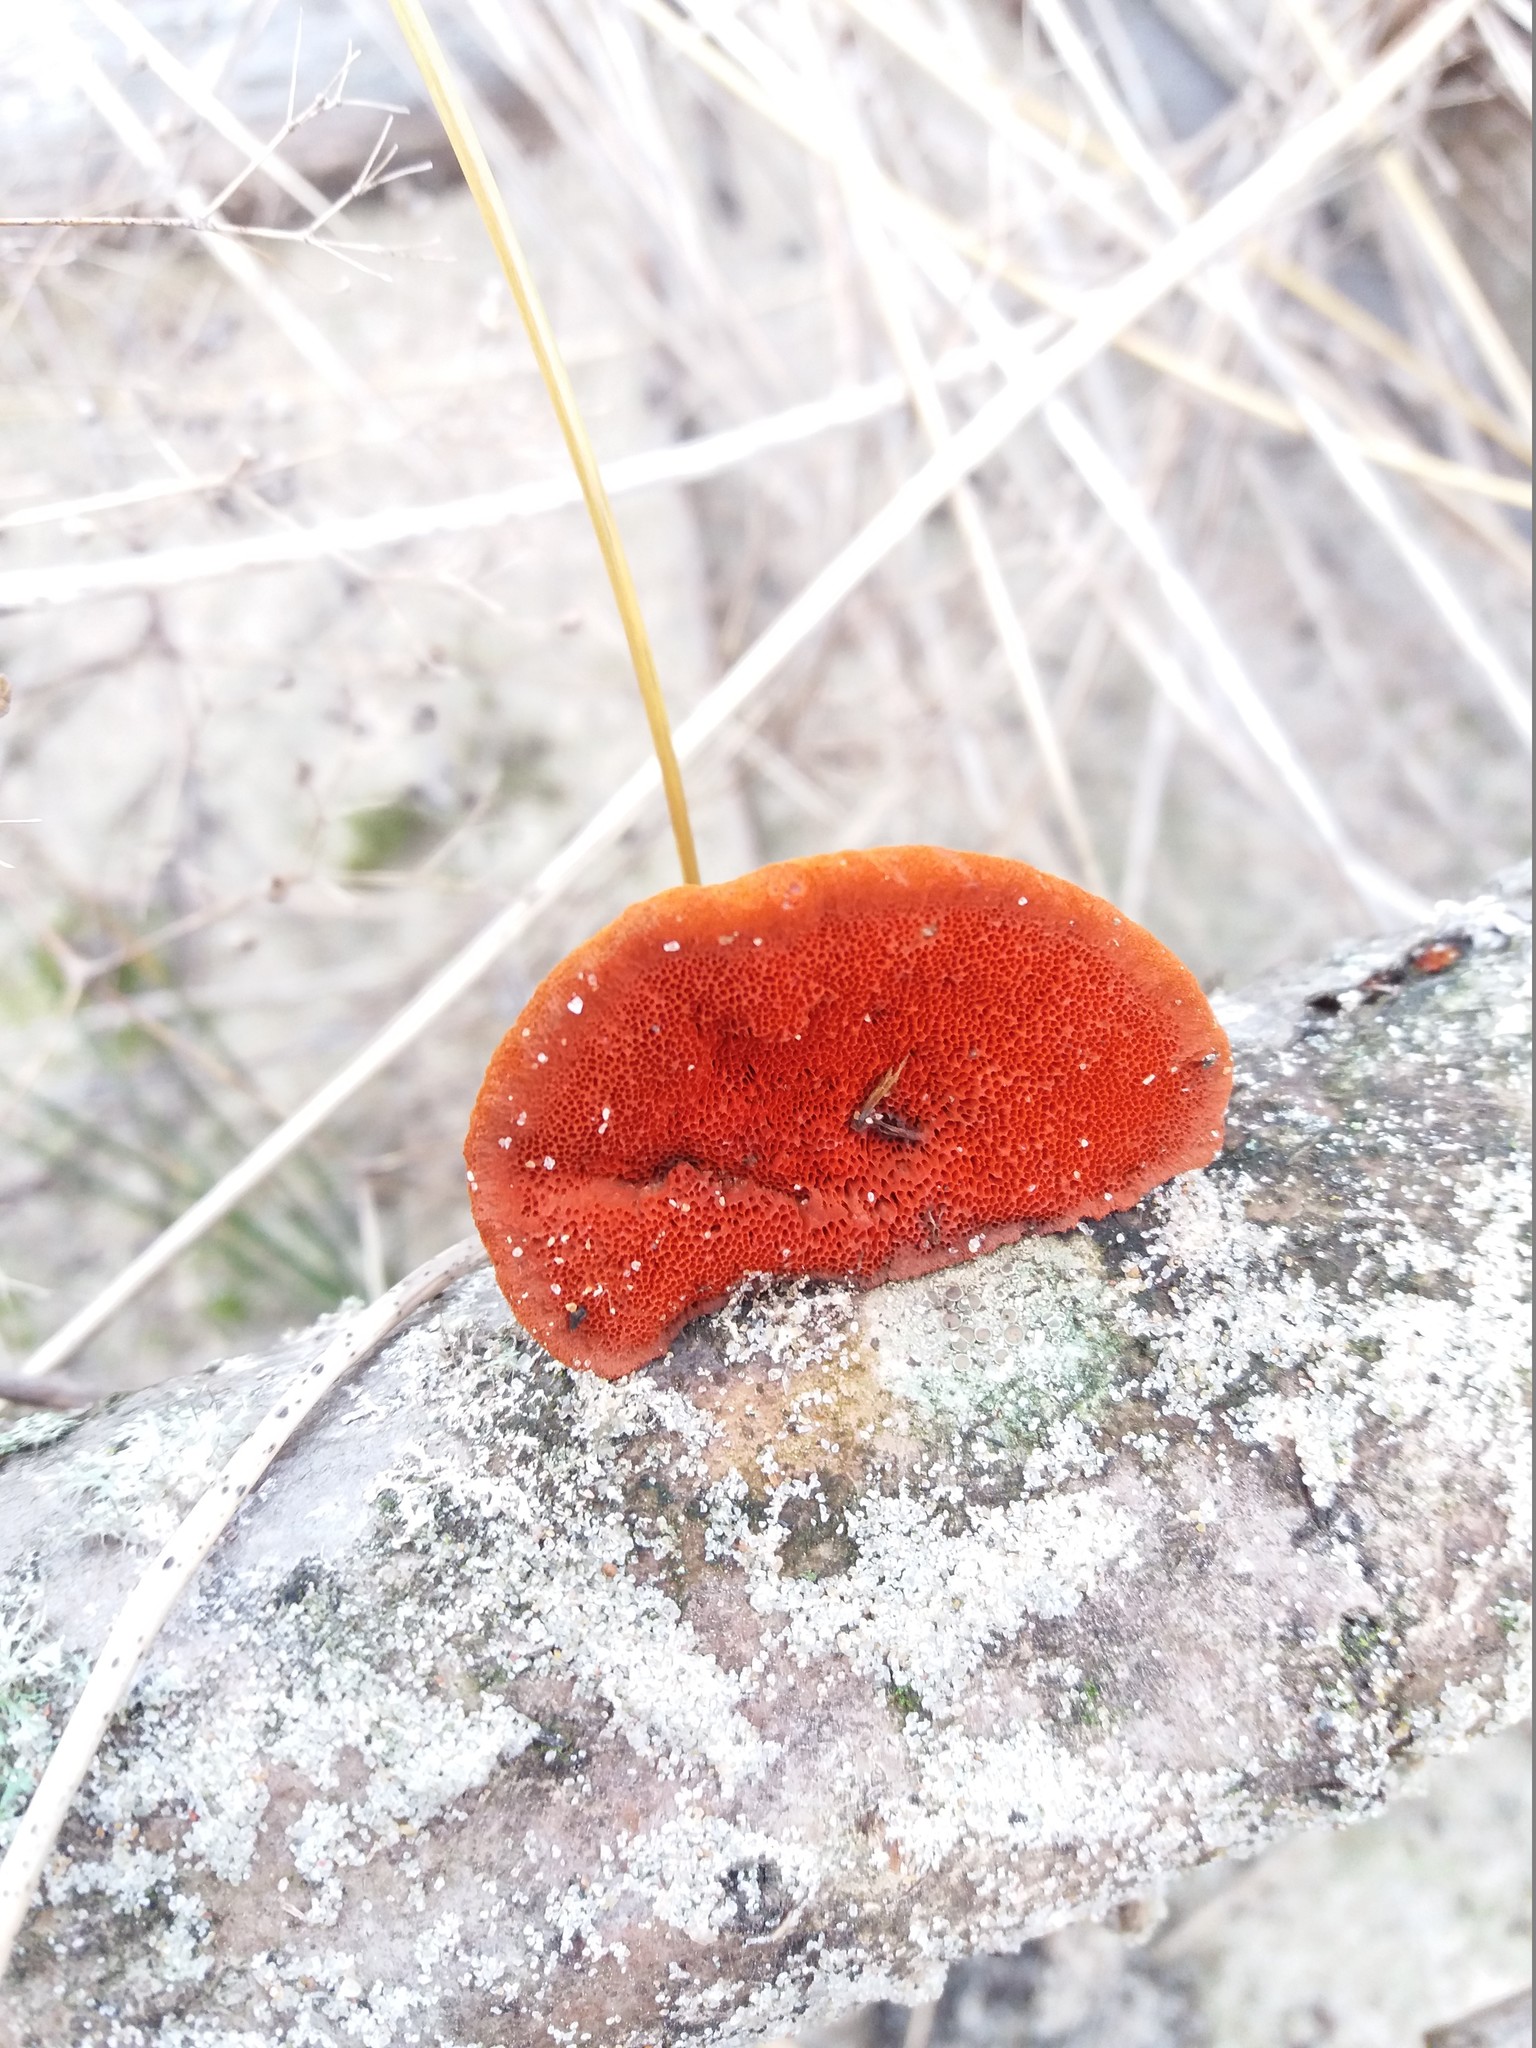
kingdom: Fungi
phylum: Basidiomycota
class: Agaricomycetes
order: Polyporales
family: Polyporaceae
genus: Trametes
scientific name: Trametes cinnabarina
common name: Northern cinnabar polypore
